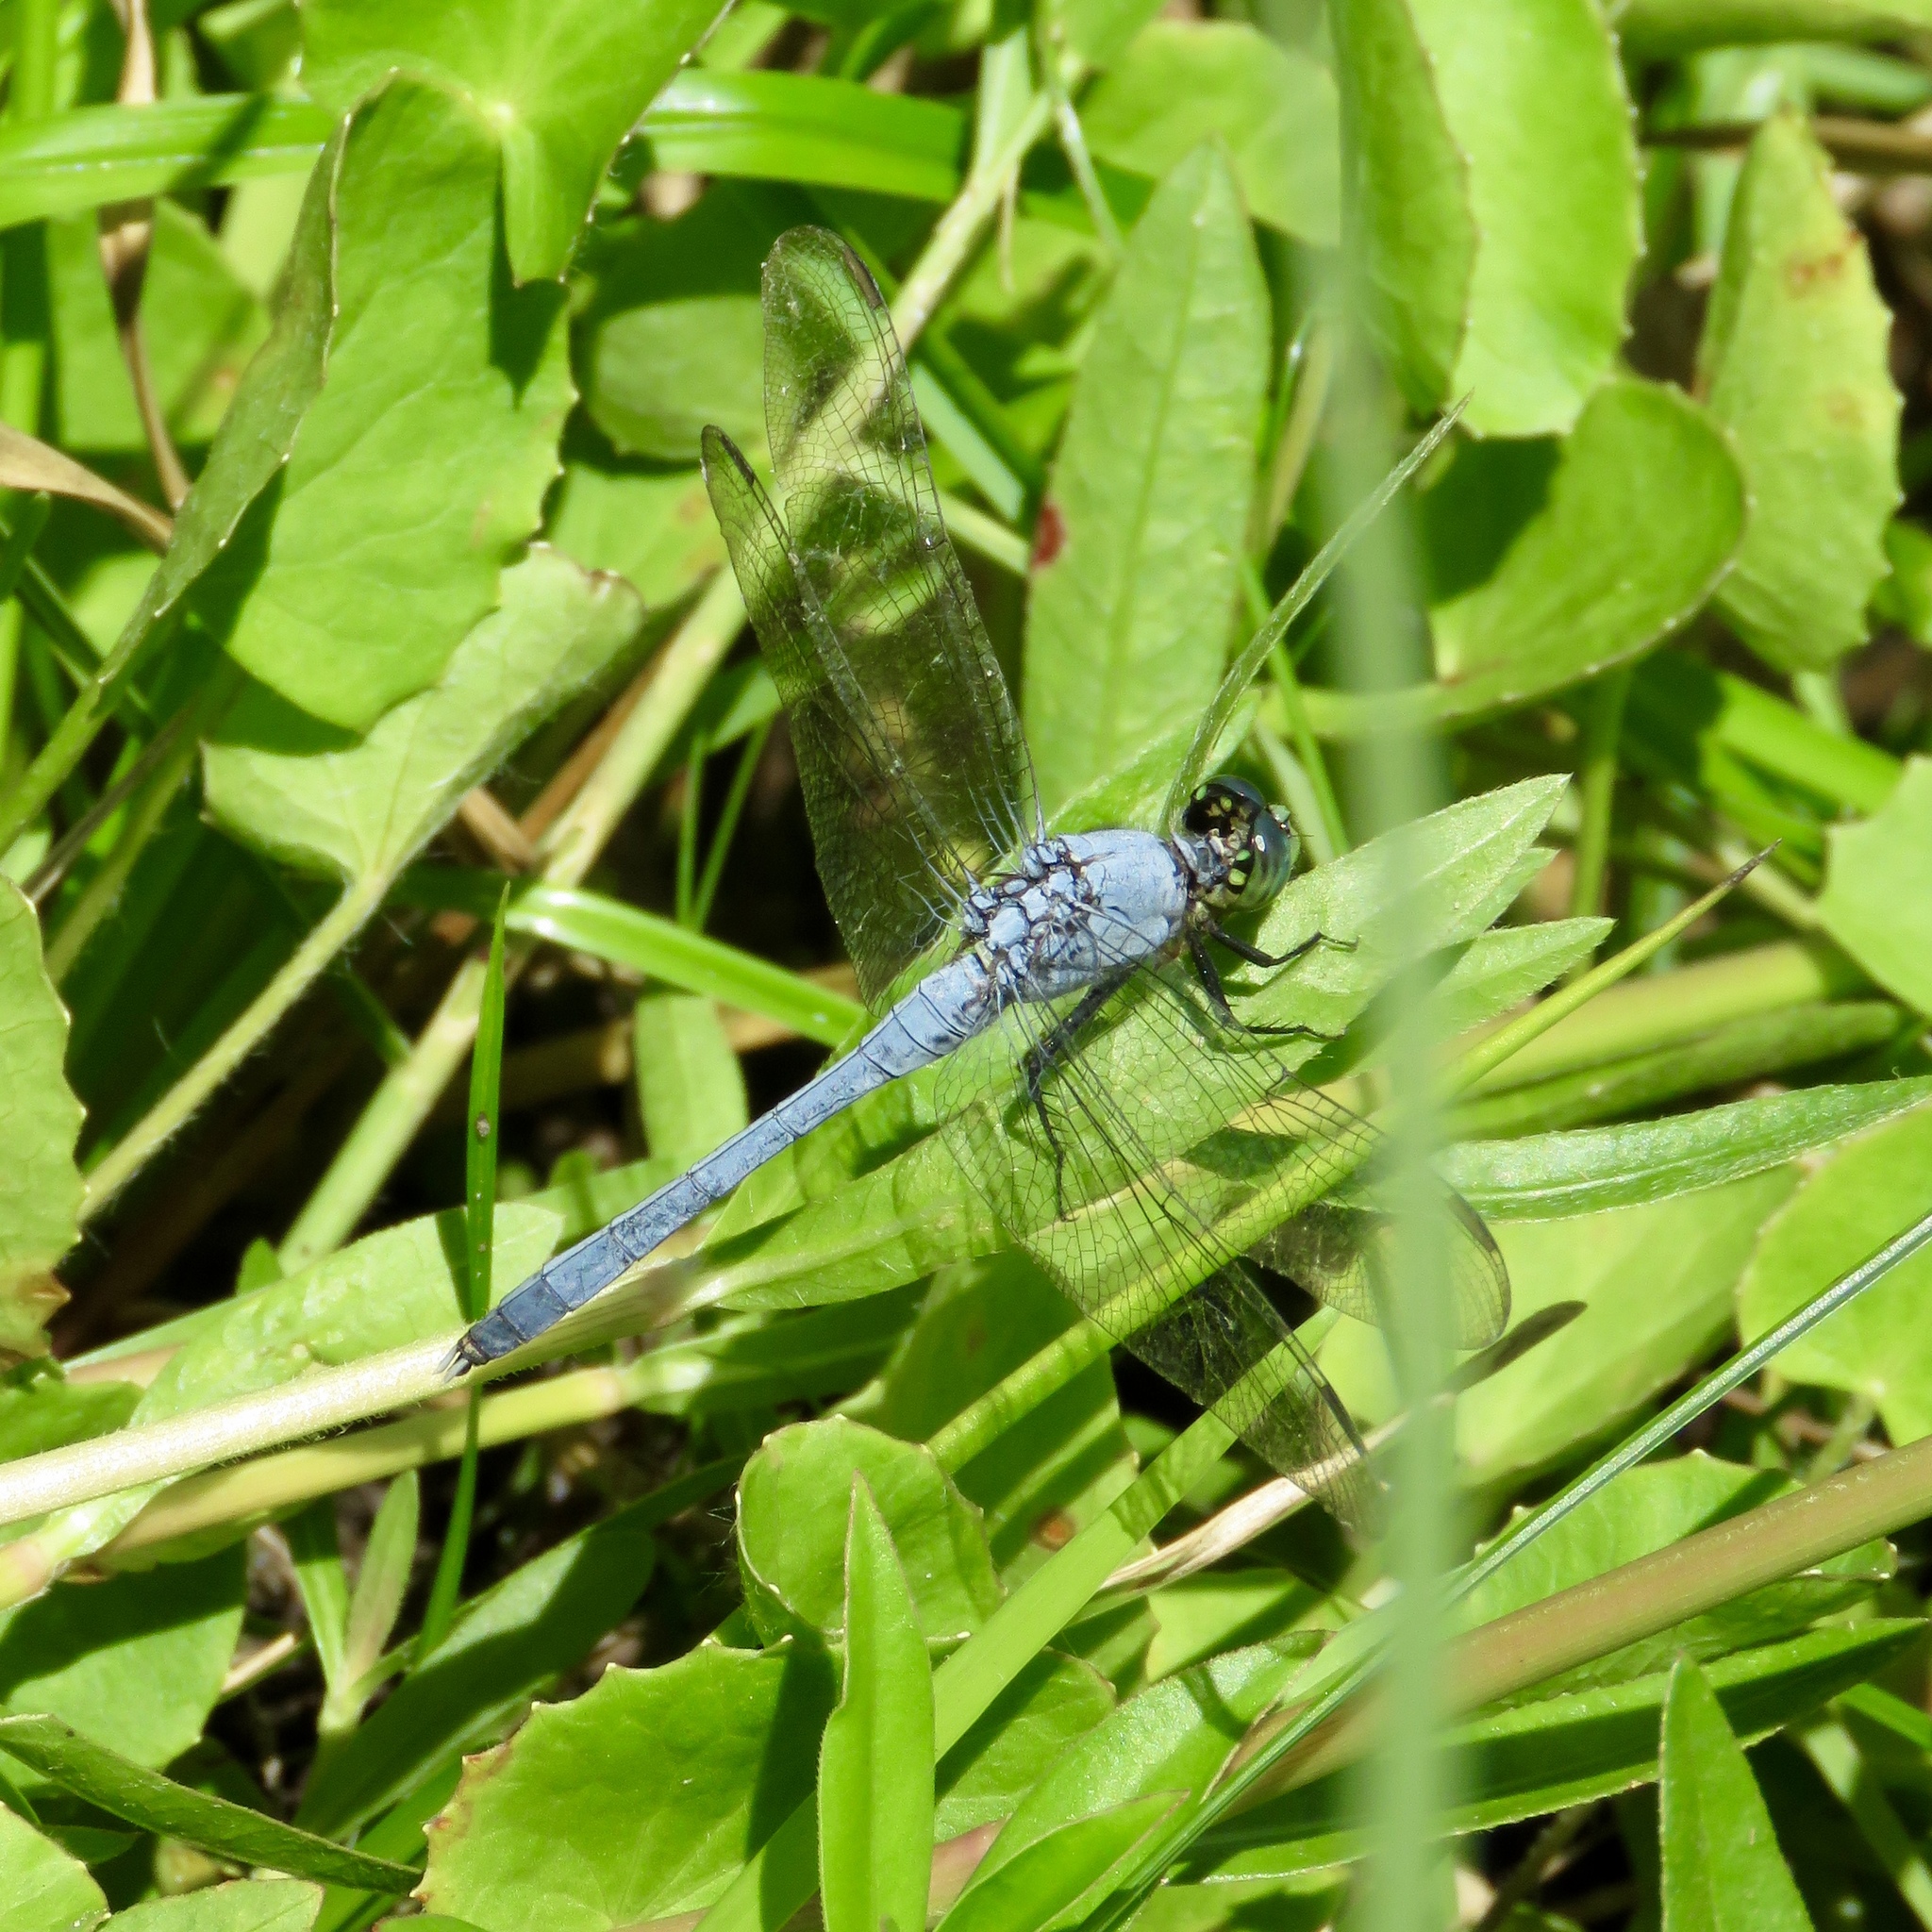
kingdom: Animalia
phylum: Arthropoda
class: Insecta
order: Odonata
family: Libellulidae
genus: Erythemis
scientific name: Erythemis simplicicollis
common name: Eastern pondhawk
